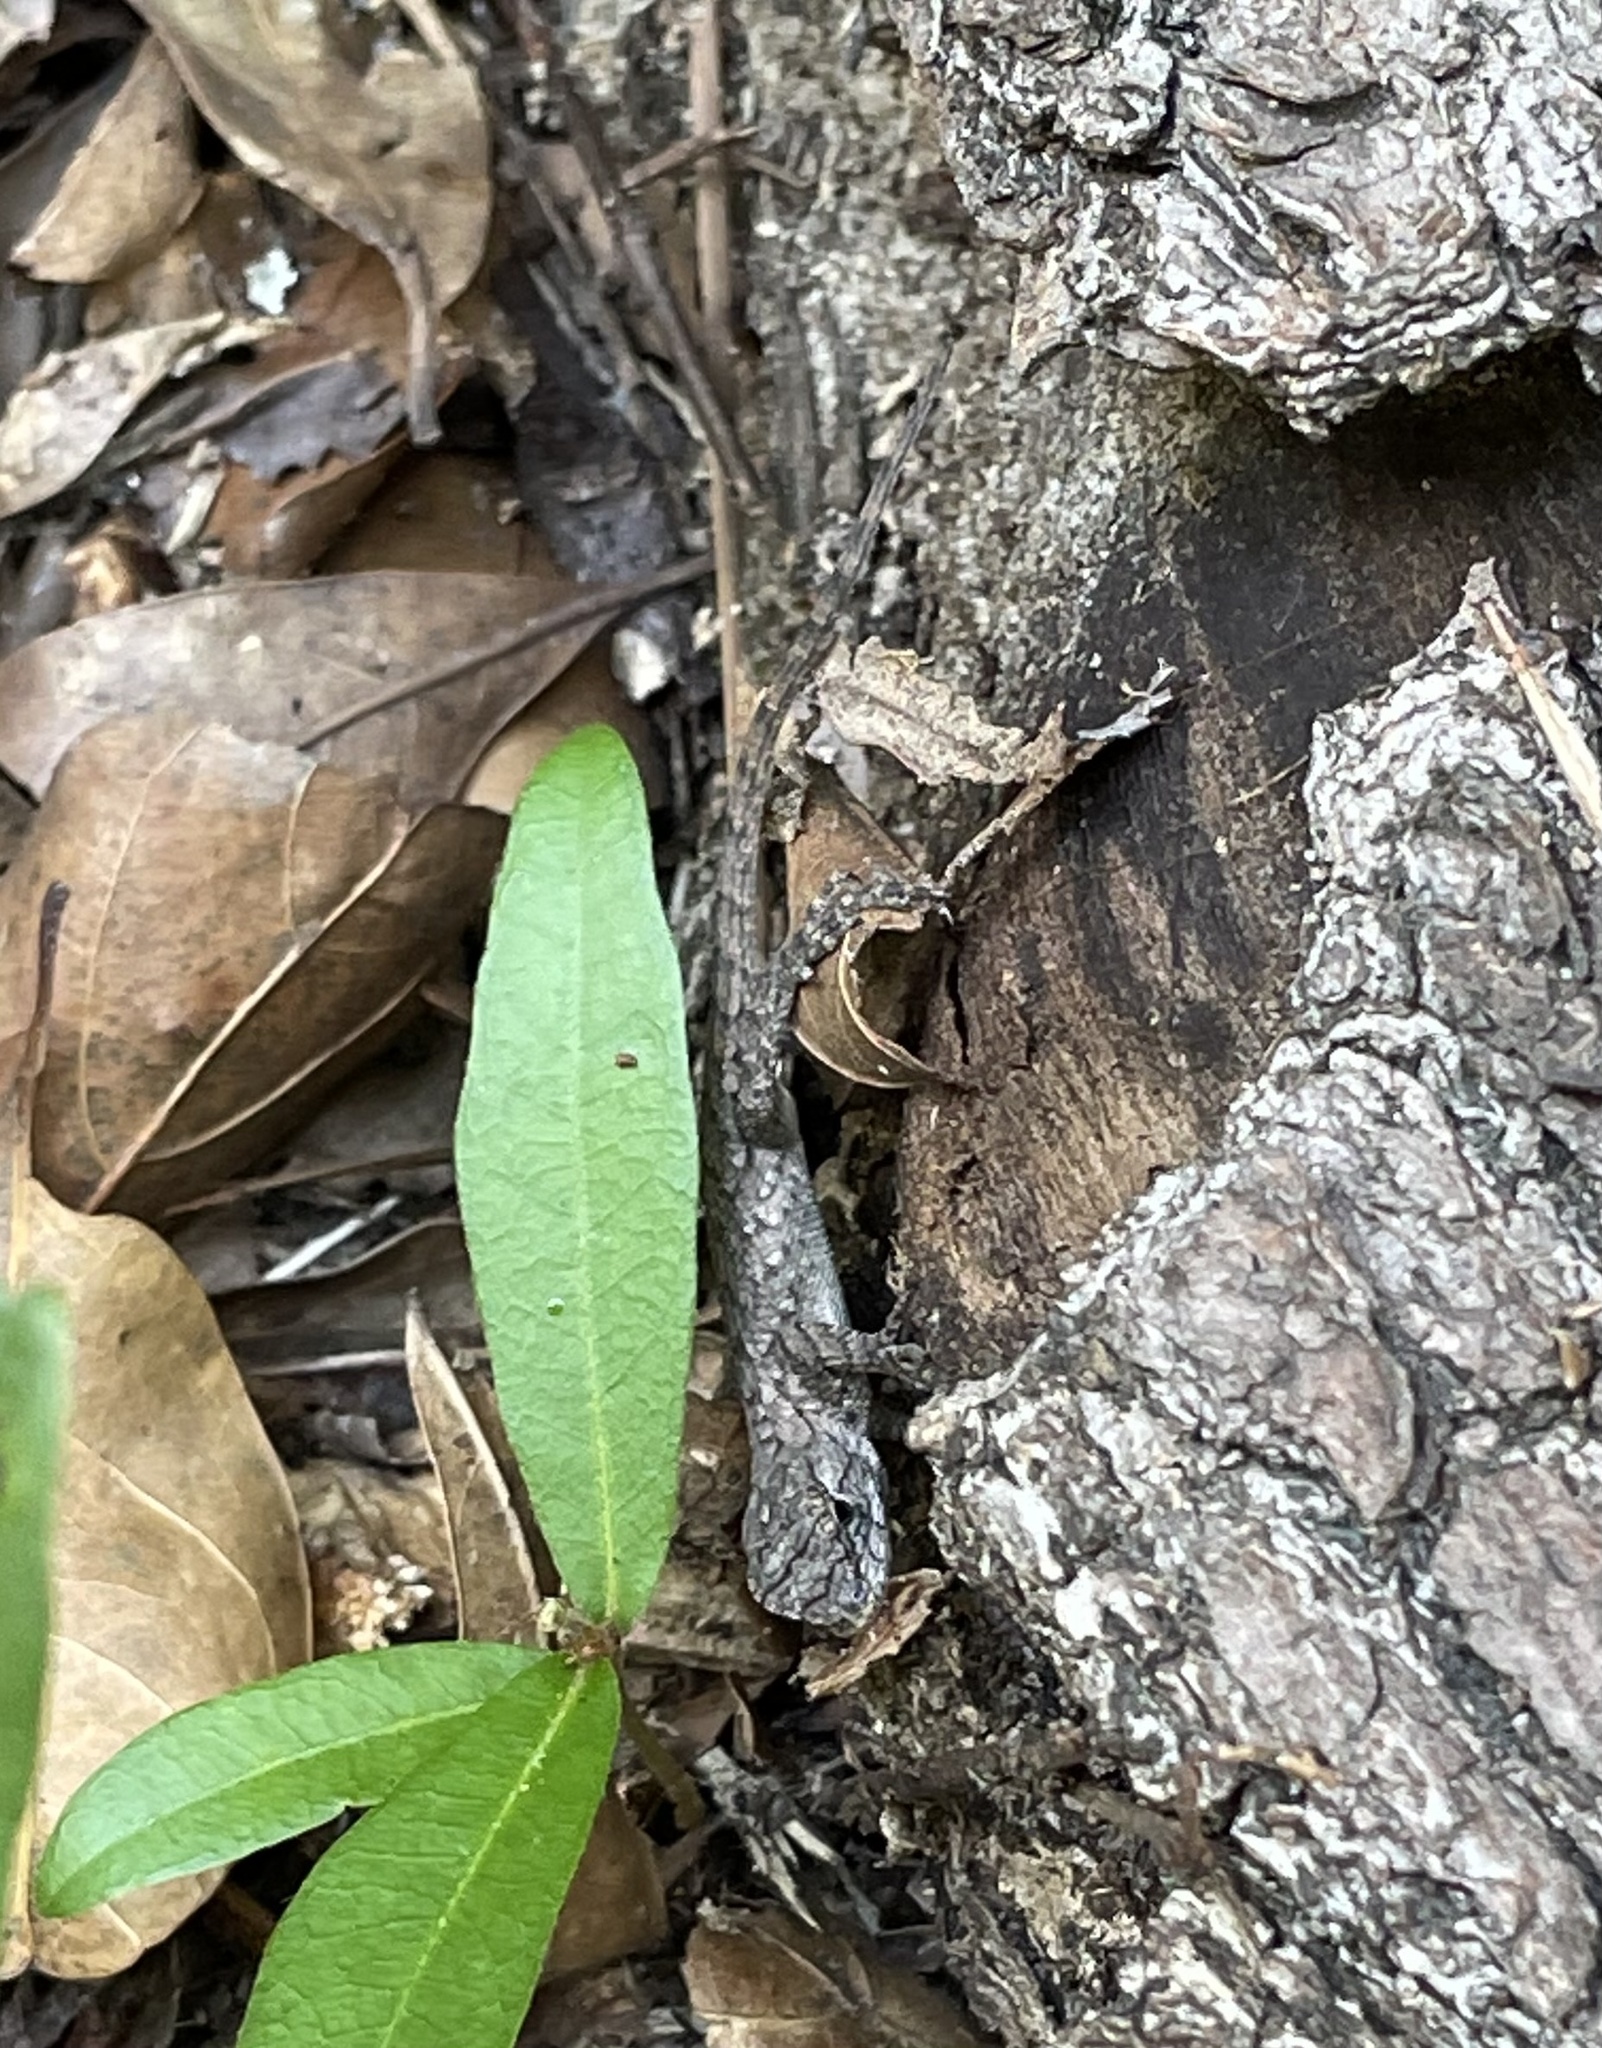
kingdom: Animalia
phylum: Chordata
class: Squamata
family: Phrynosomatidae
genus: Sceloporus
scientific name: Sceloporus undulatus
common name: Eastern fence lizard
